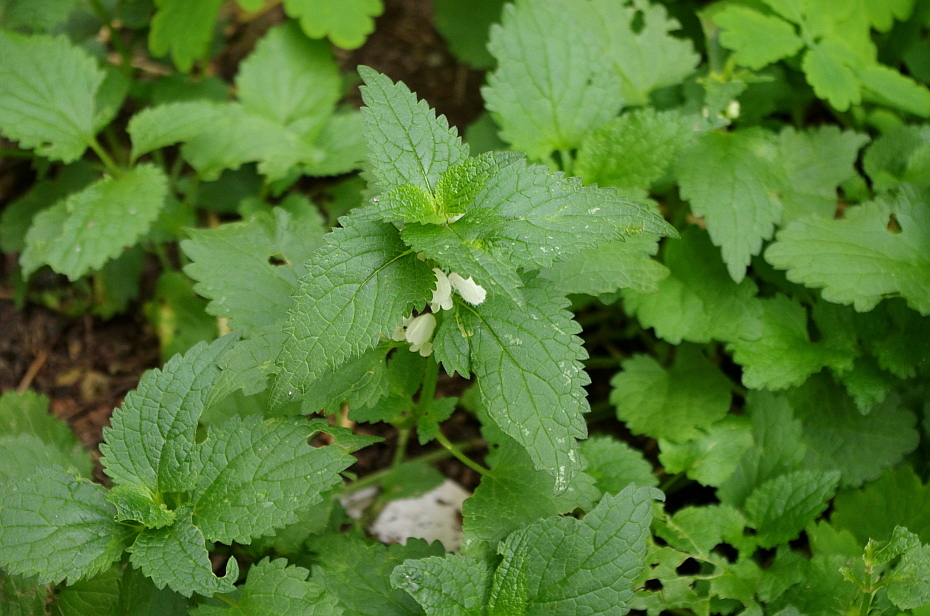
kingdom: Plantae
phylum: Tracheophyta
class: Magnoliopsida
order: Lamiales
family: Lamiaceae
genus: Lamium
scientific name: Lamium album
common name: White dead-nettle
